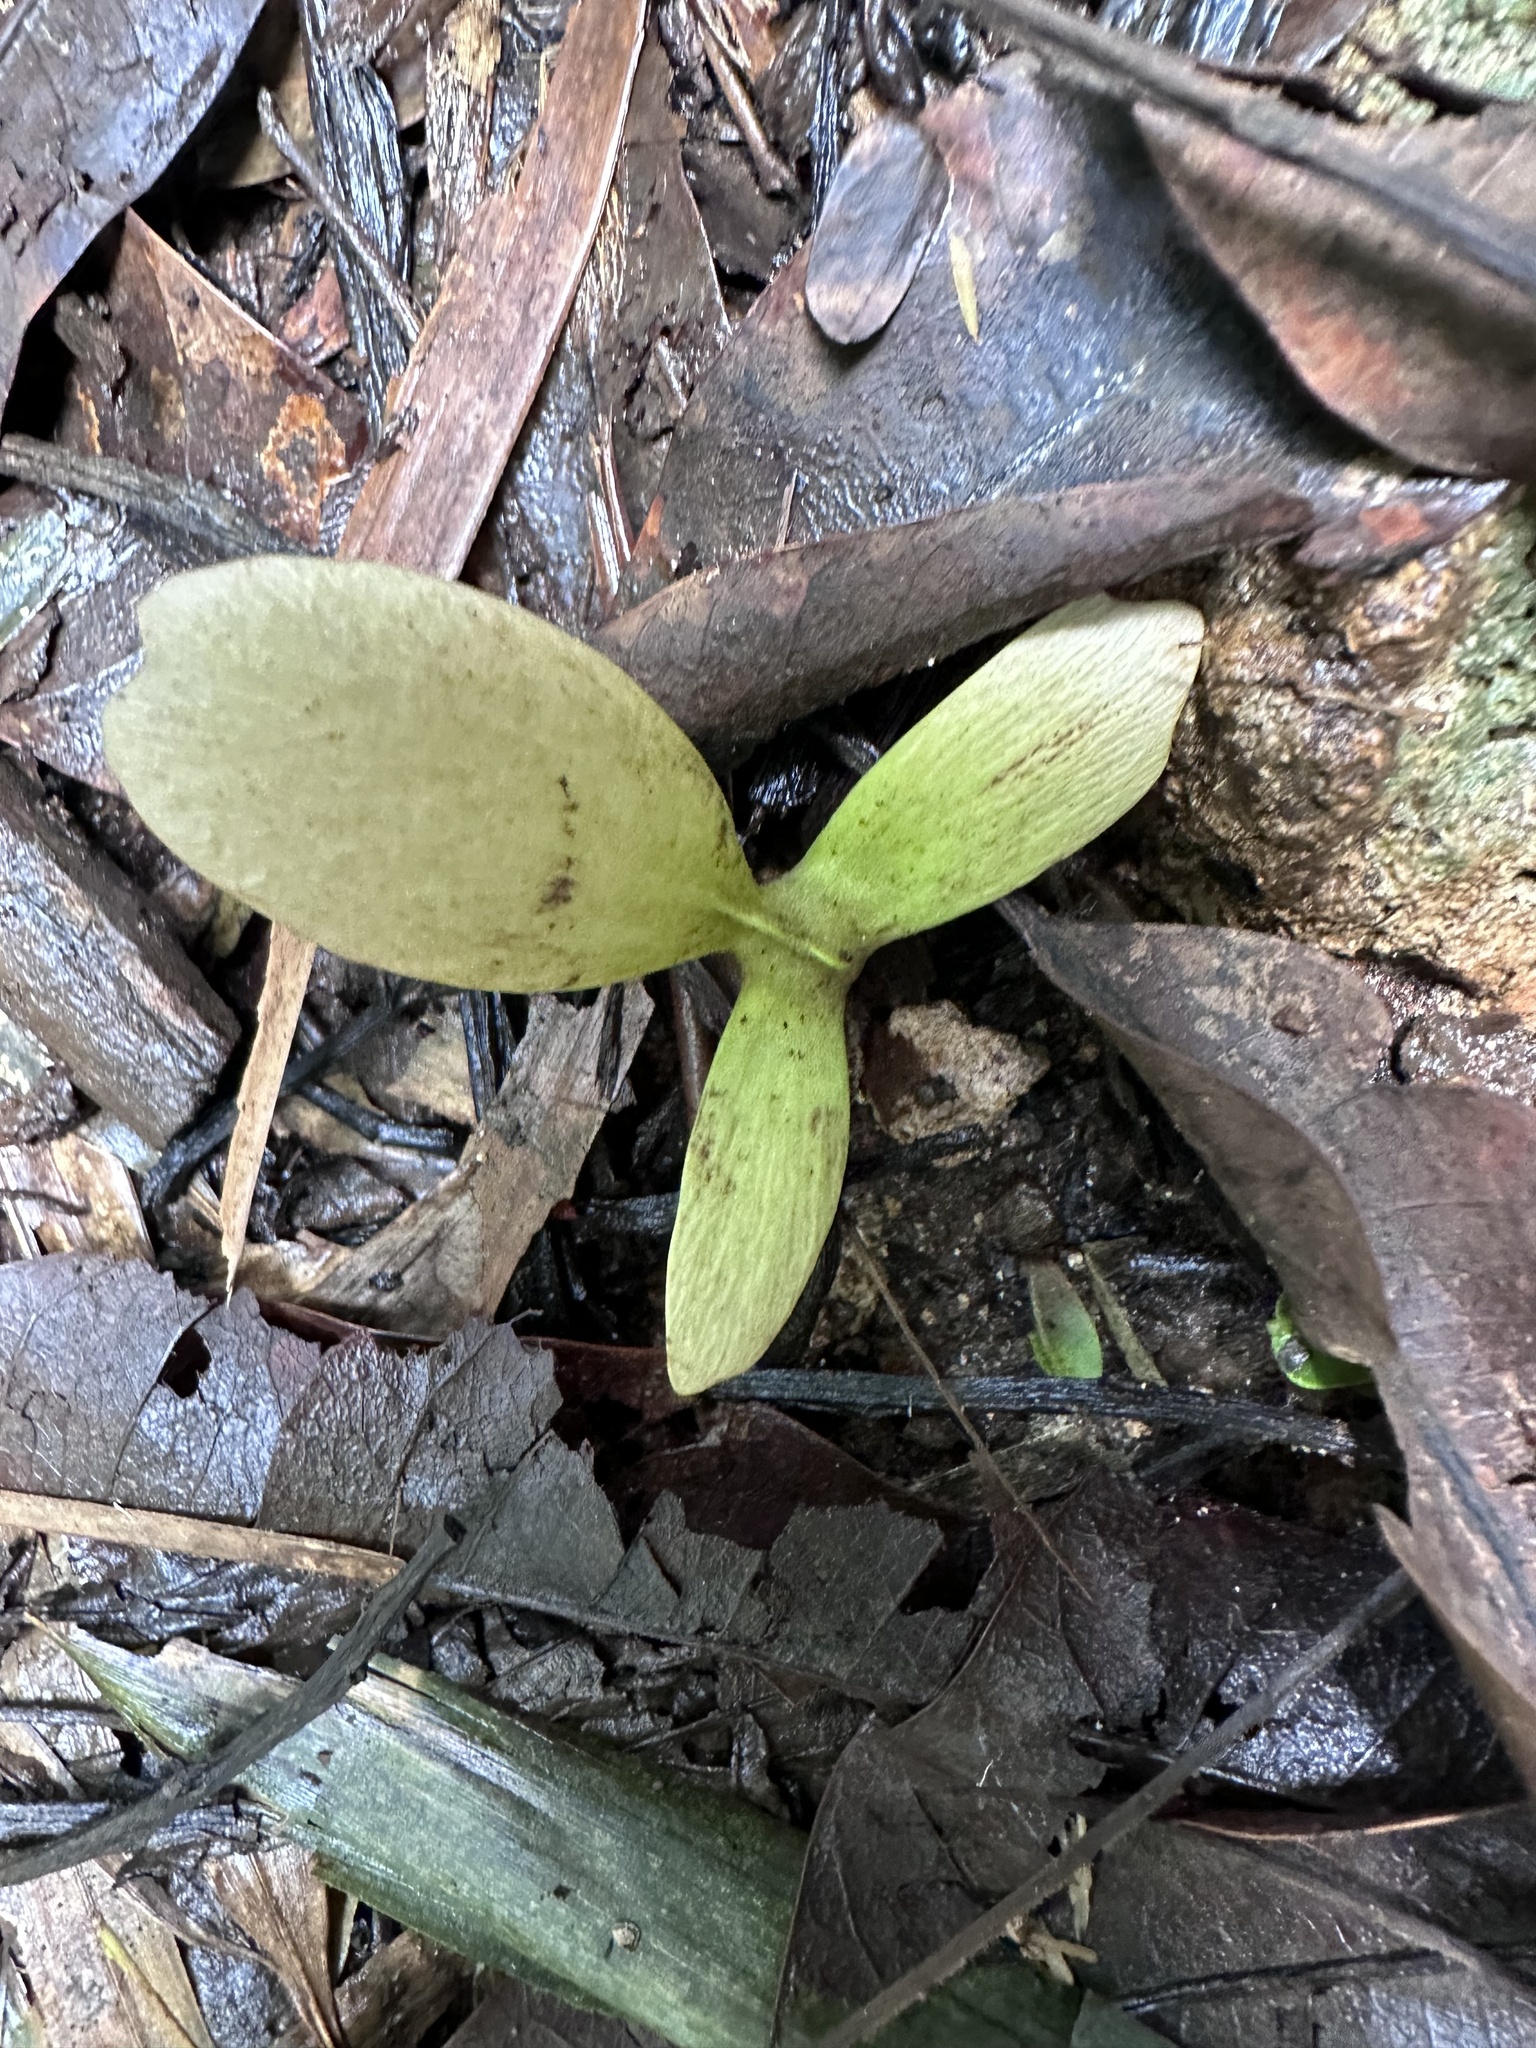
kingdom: Plantae
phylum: Tracheophyta
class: Magnoliopsida
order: Malpighiales
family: Malpighiaceae
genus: Hiptage
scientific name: Hiptage benghalensis
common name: Hiptage
